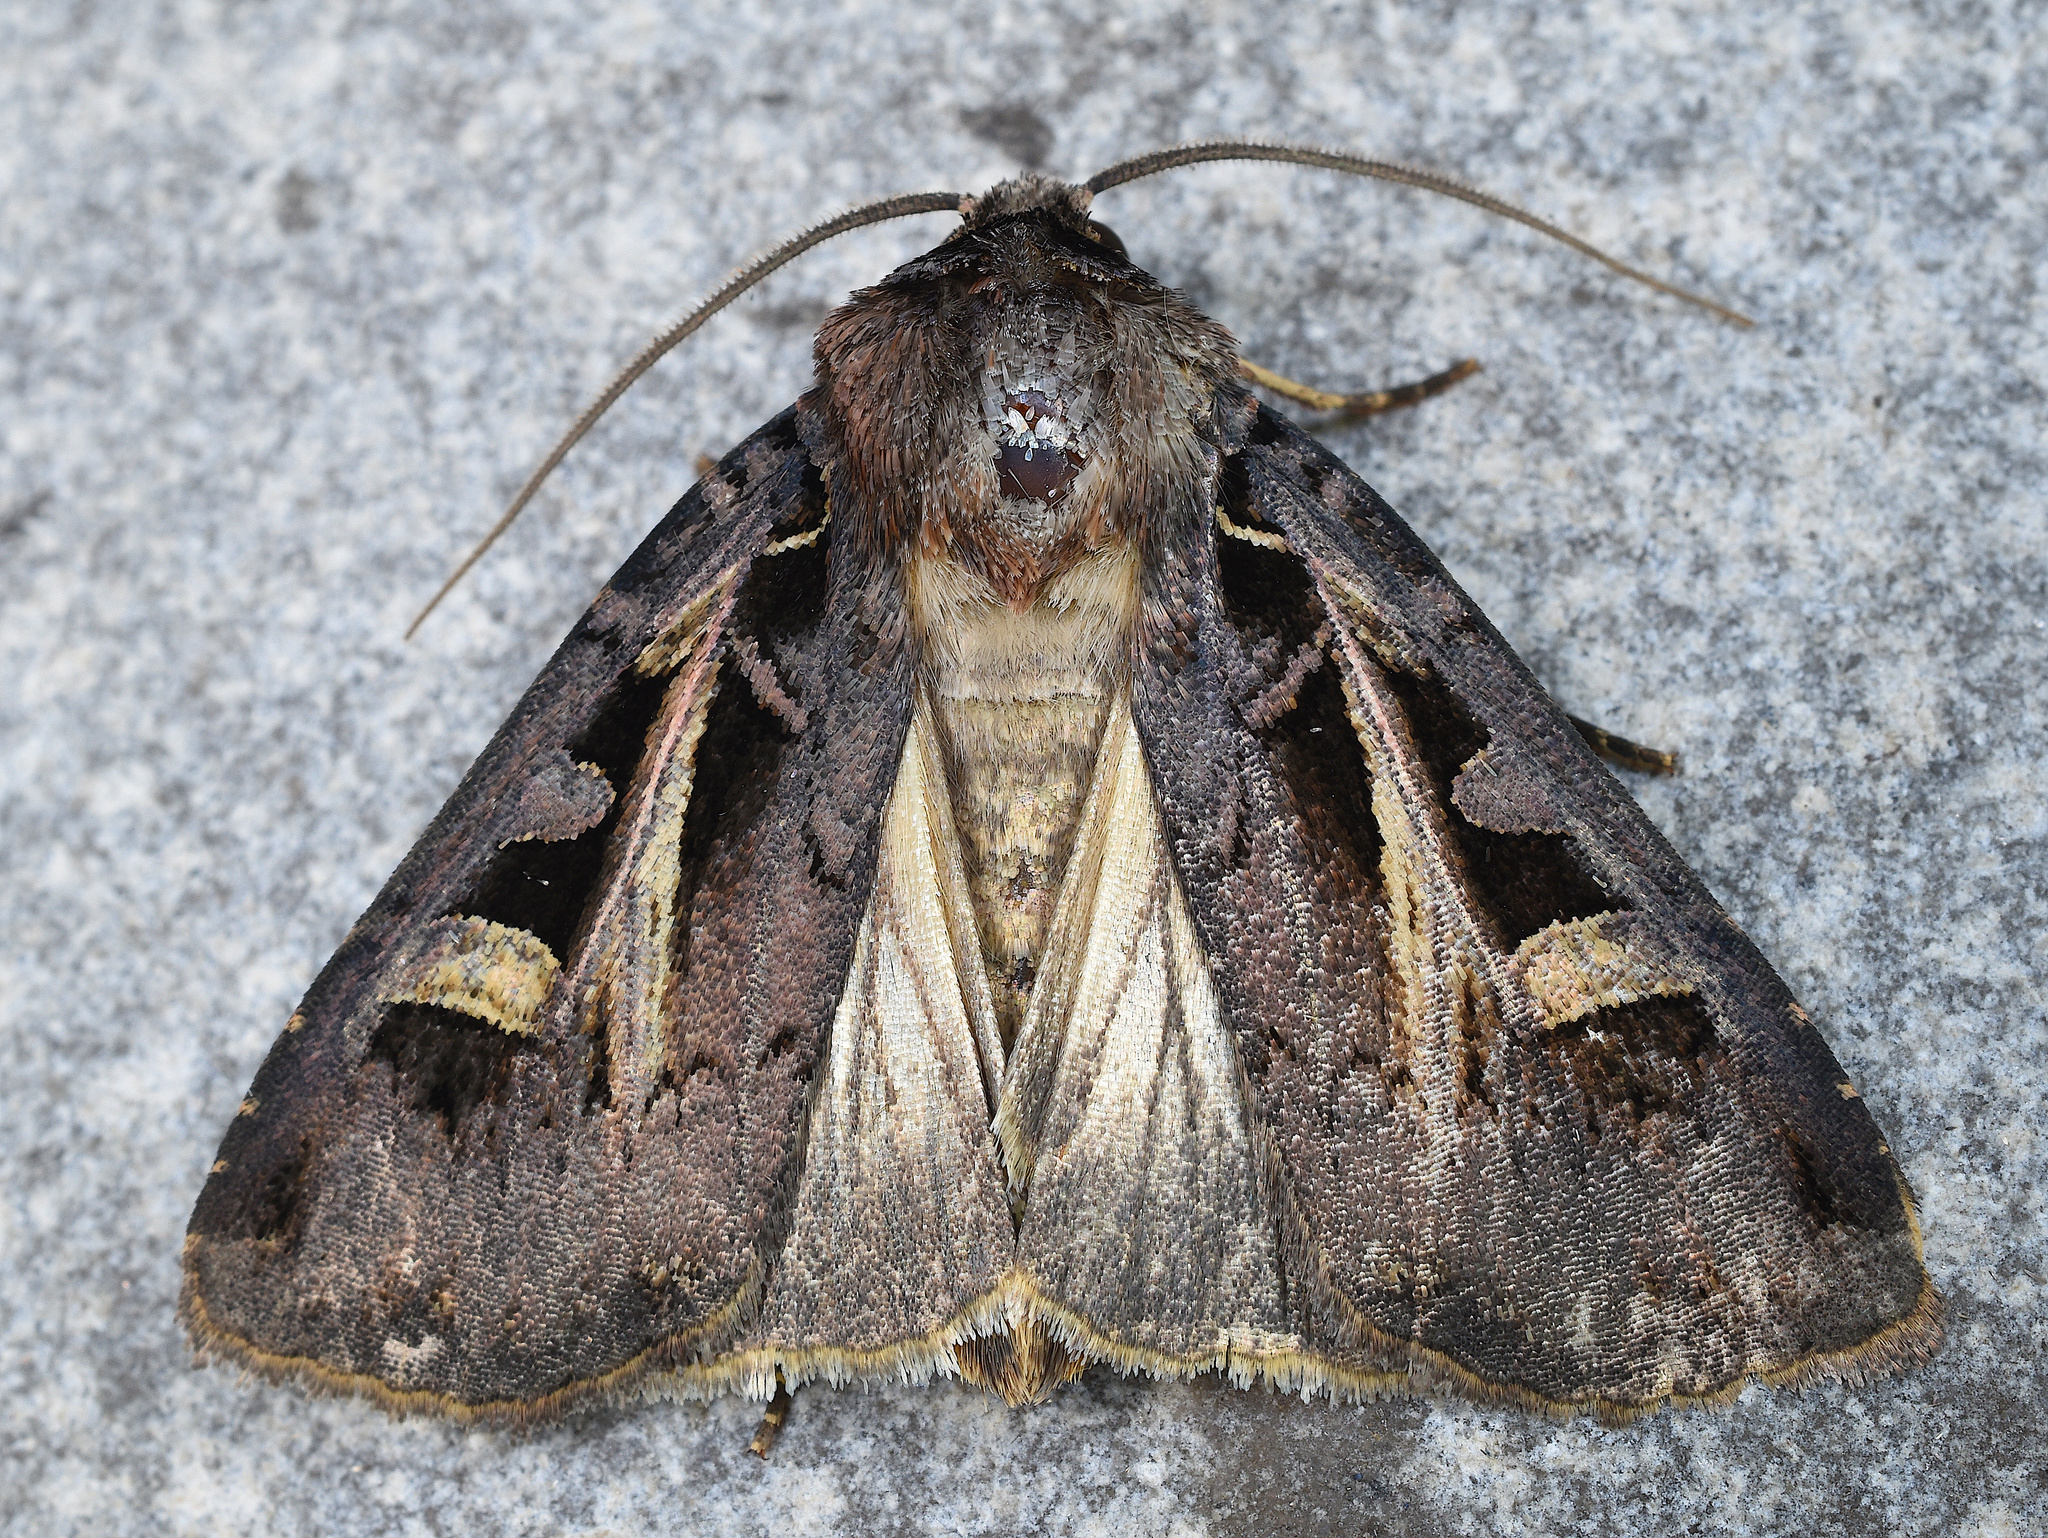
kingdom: Animalia
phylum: Arthropoda
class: Insecta
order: Lepidoptera
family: Noctuidae
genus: Feltia
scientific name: Feltia herilis
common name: Master's dart
